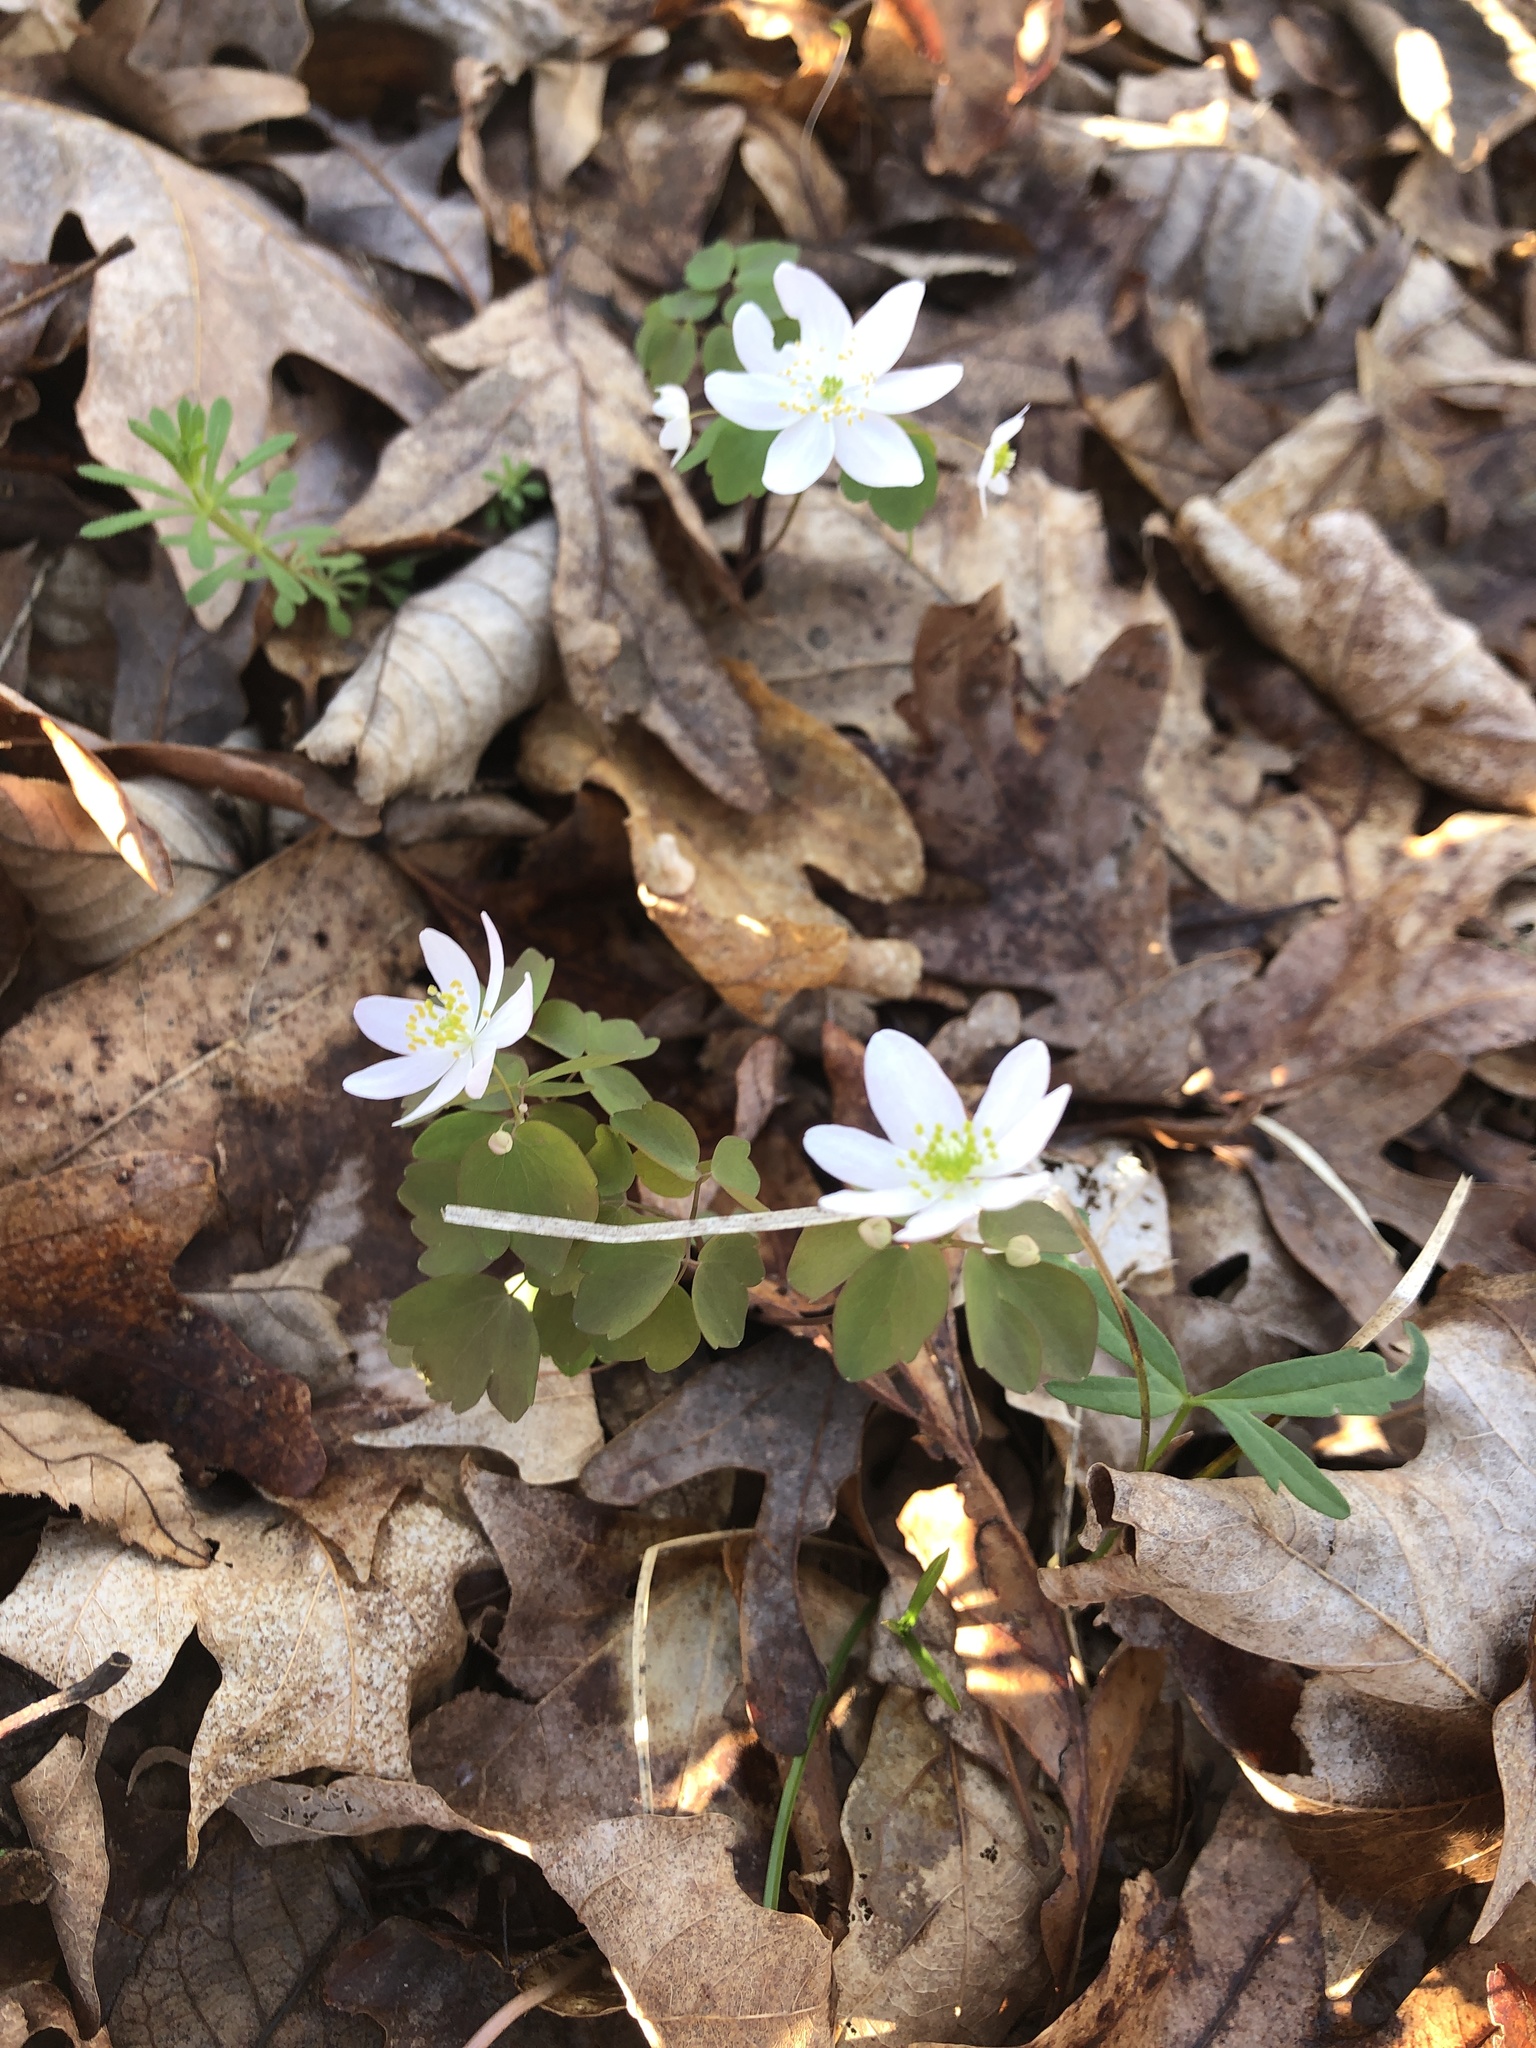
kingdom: Plantae
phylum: Tracheophyta
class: Magnoliopsida
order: Ranunculales
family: Ranunculaceae
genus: Thalictrum
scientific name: Thalictrum thalictroides
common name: Rue-anemone
